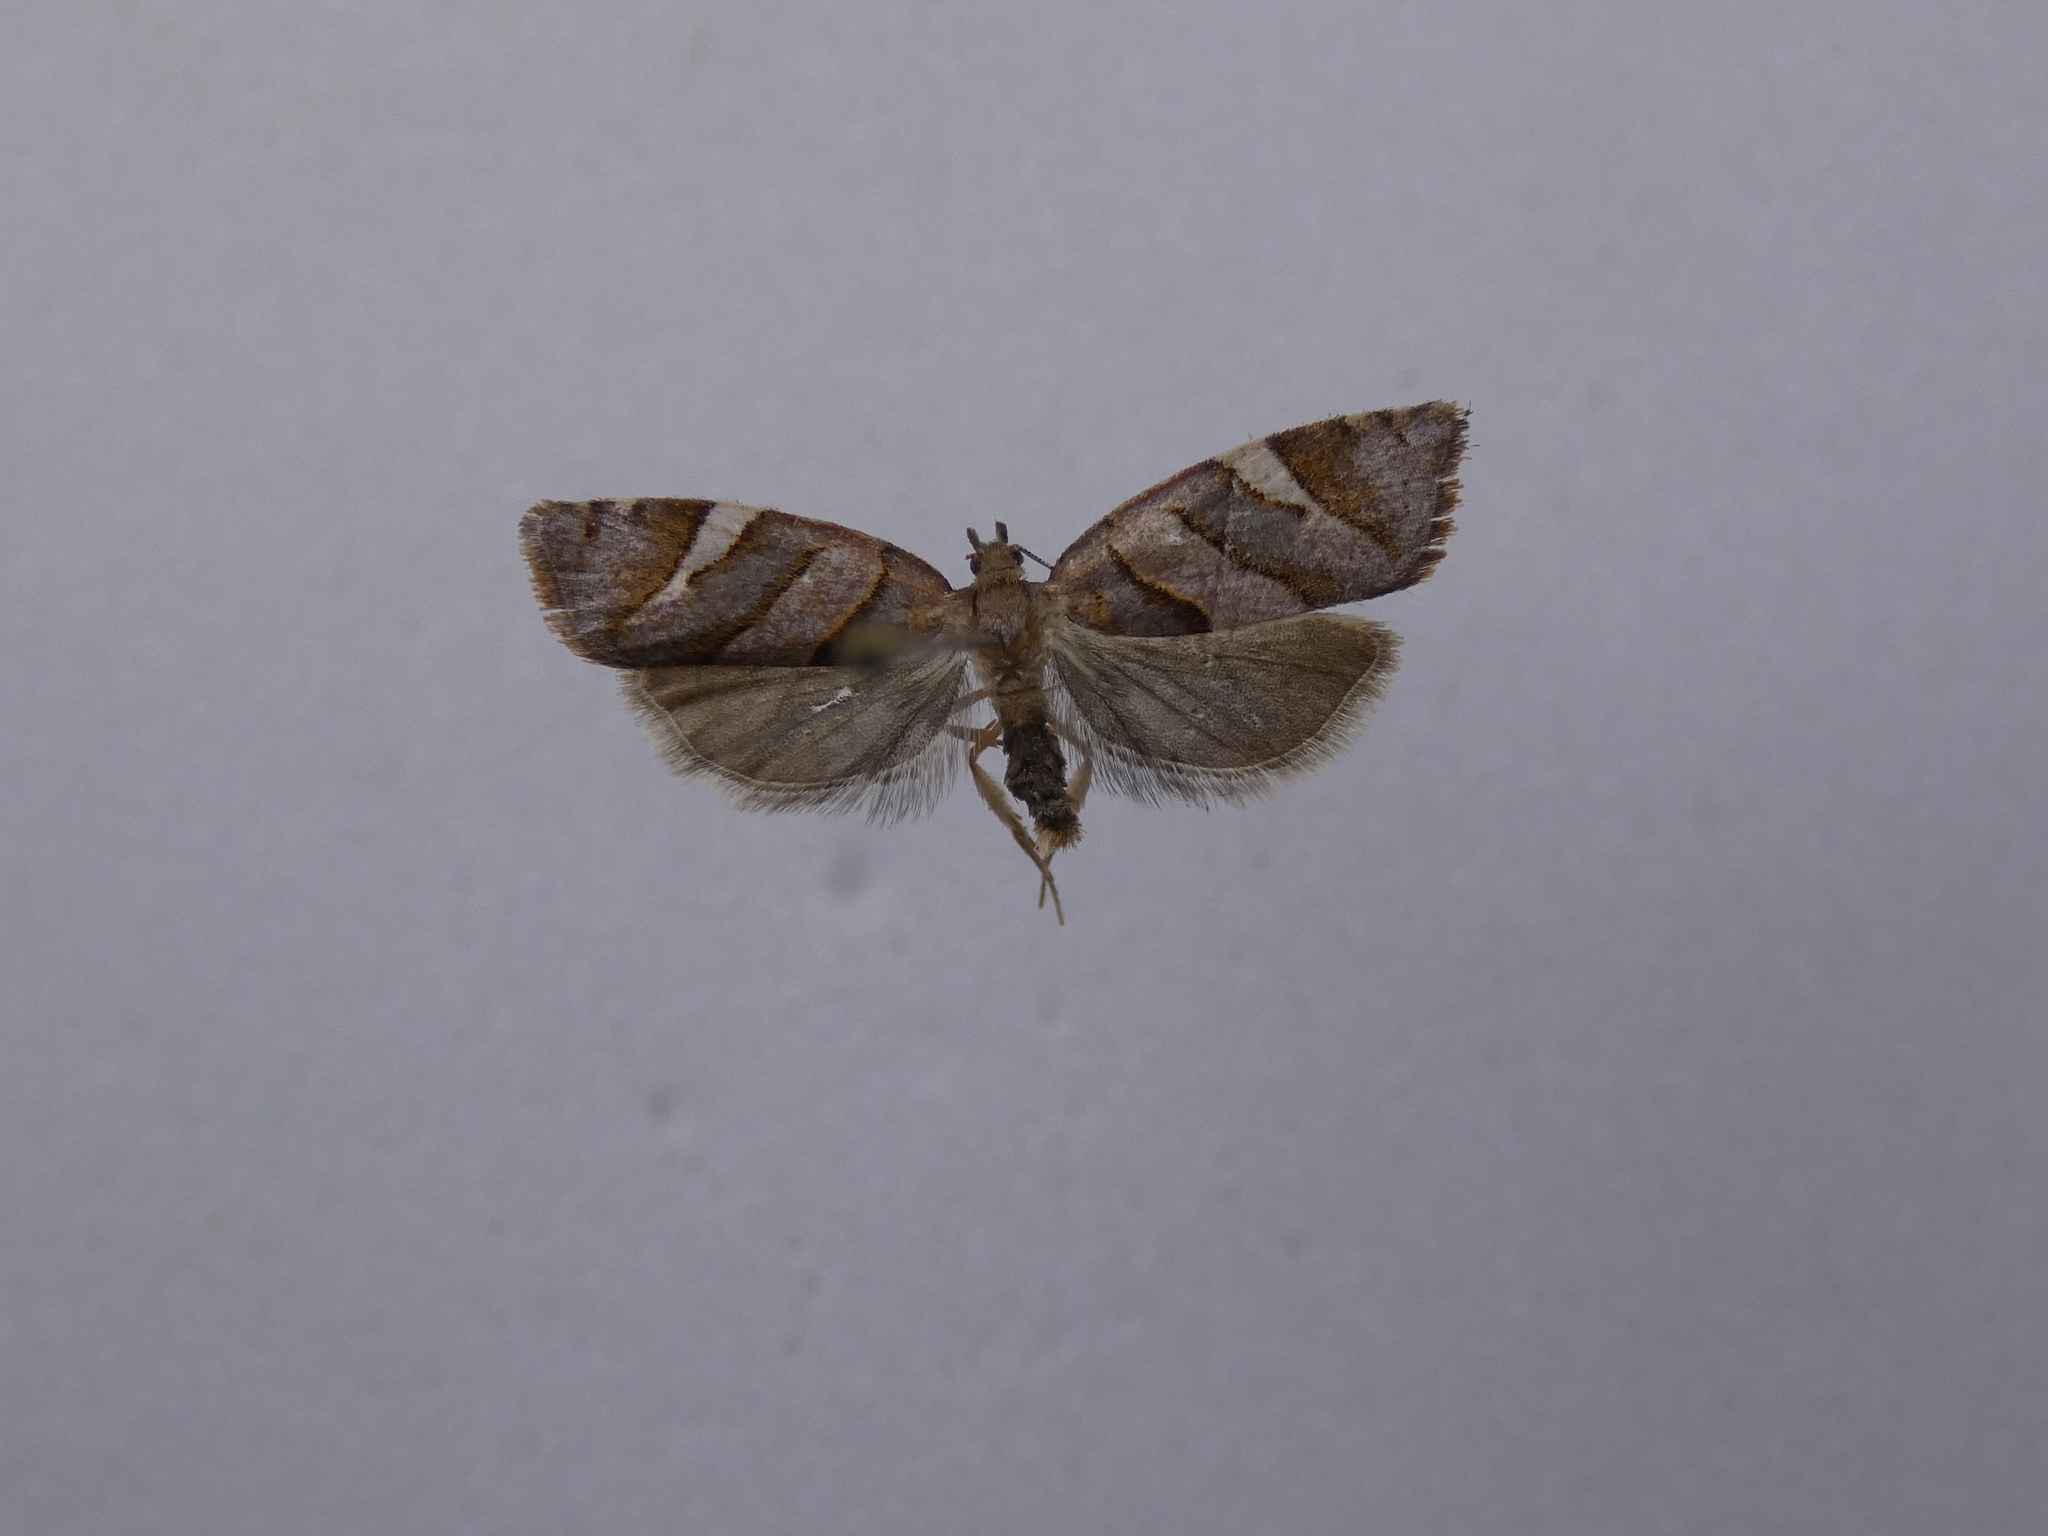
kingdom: Animalia
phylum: Arthropoda
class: Insecta
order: Lepidoptera
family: Tortricidae
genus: Ecclitica
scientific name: Ecclitica torogramma
